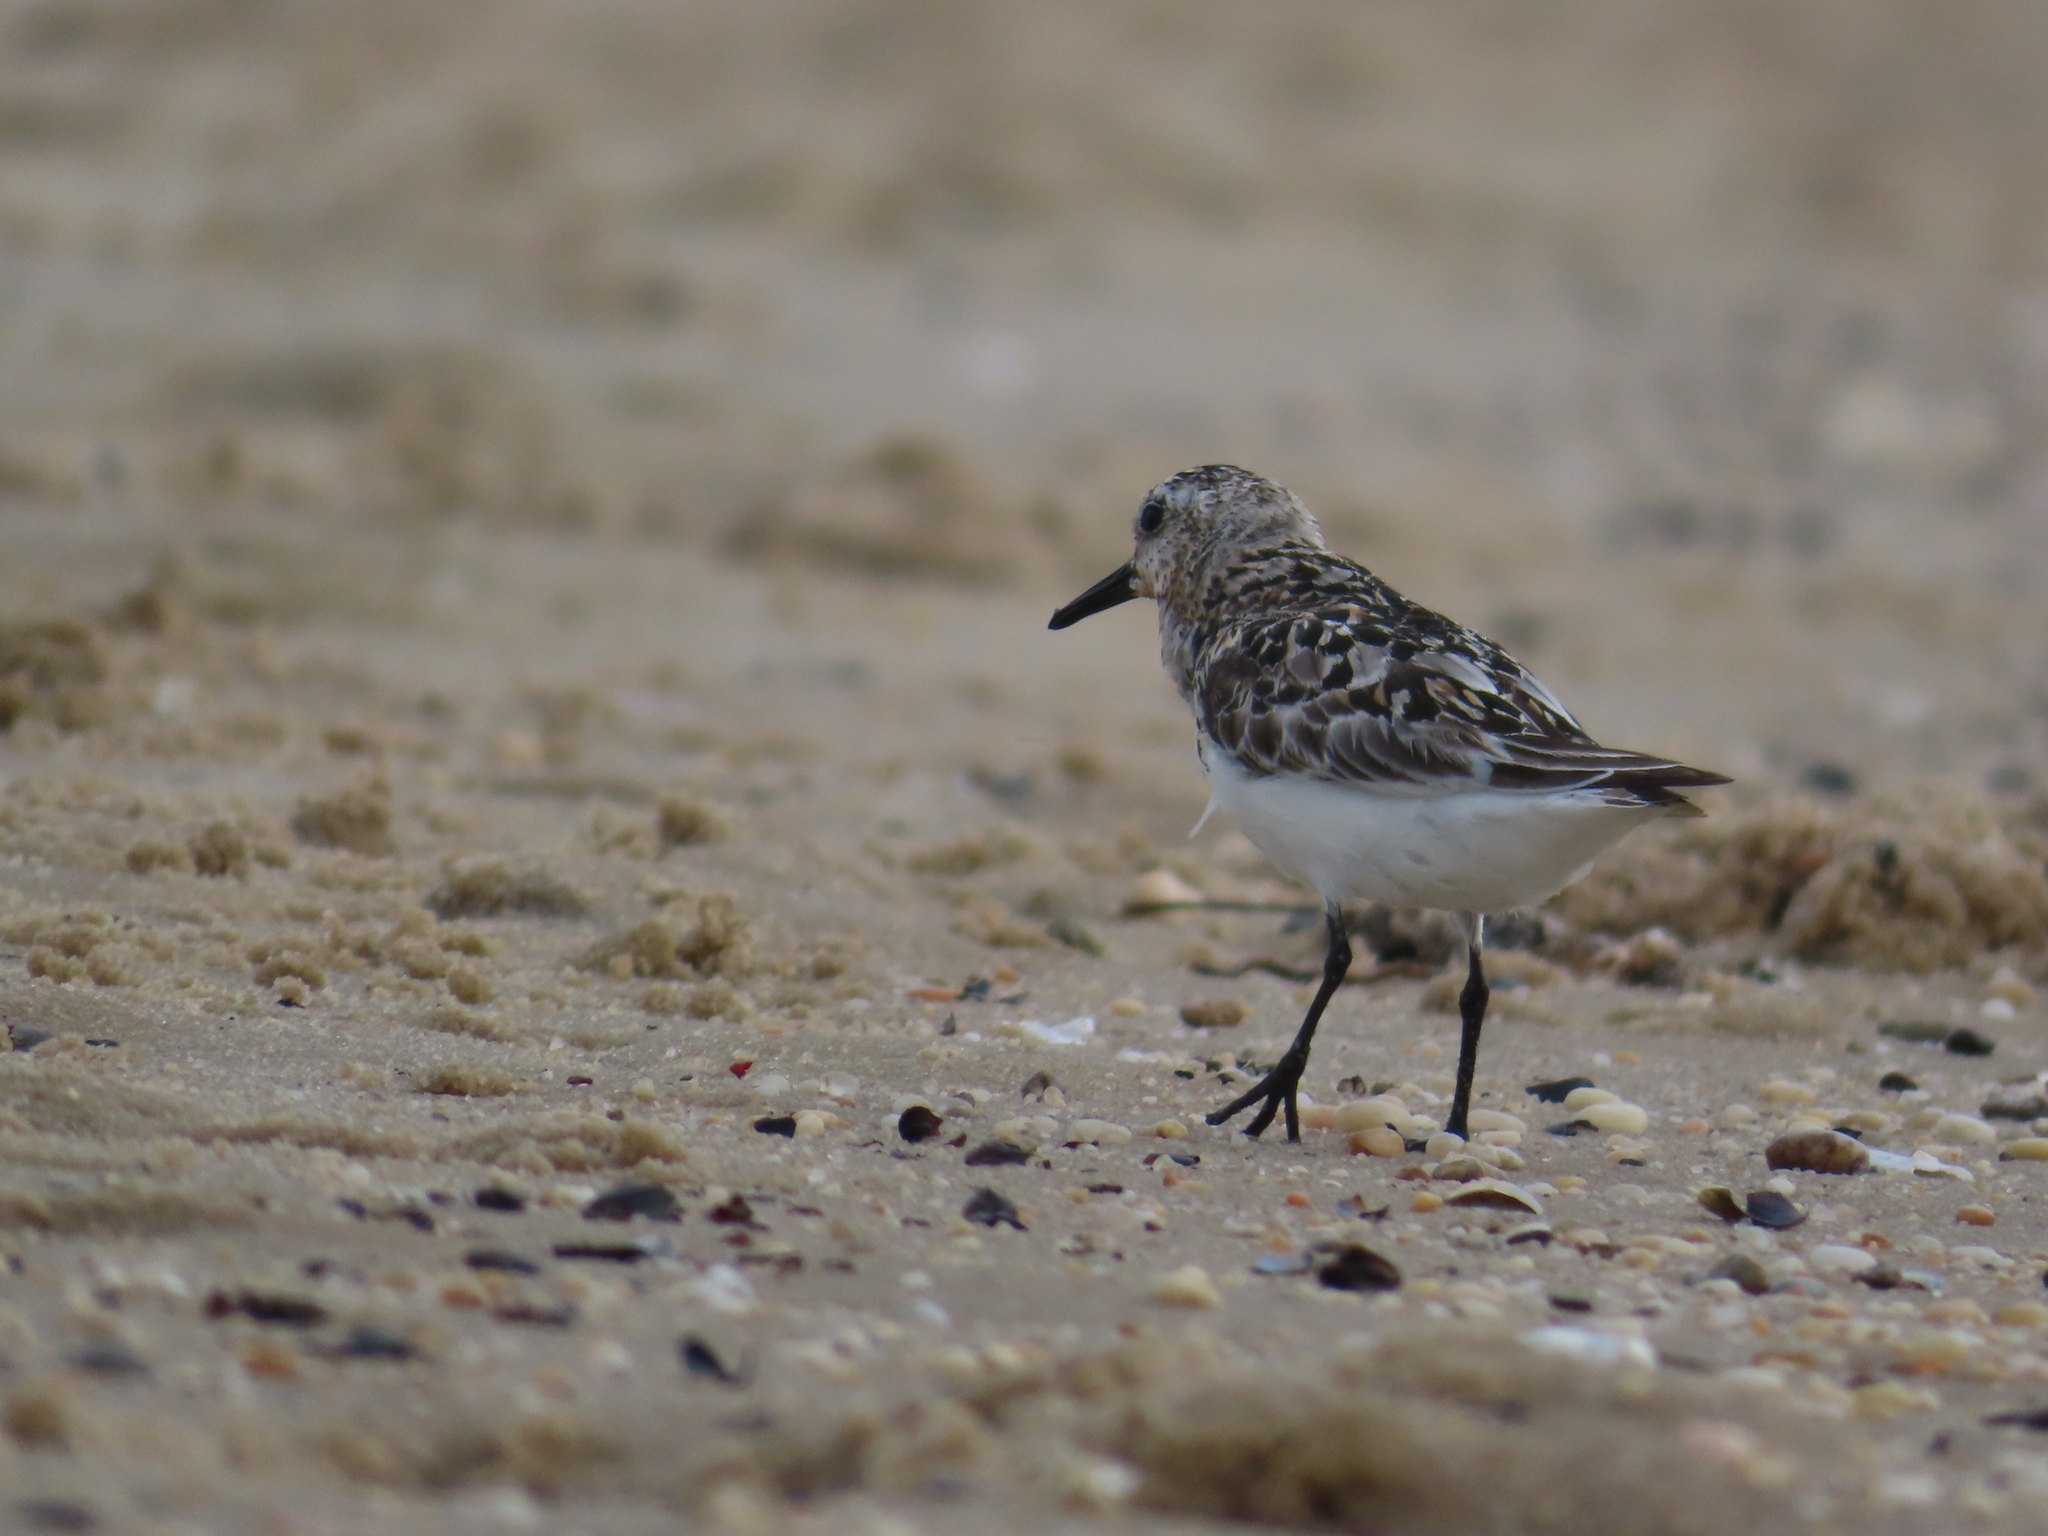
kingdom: Animalia
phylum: Chordata
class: Aves
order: Charadriiformes
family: Scolopacidae
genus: Calidris
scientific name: Calidris alba
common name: Sanderling
